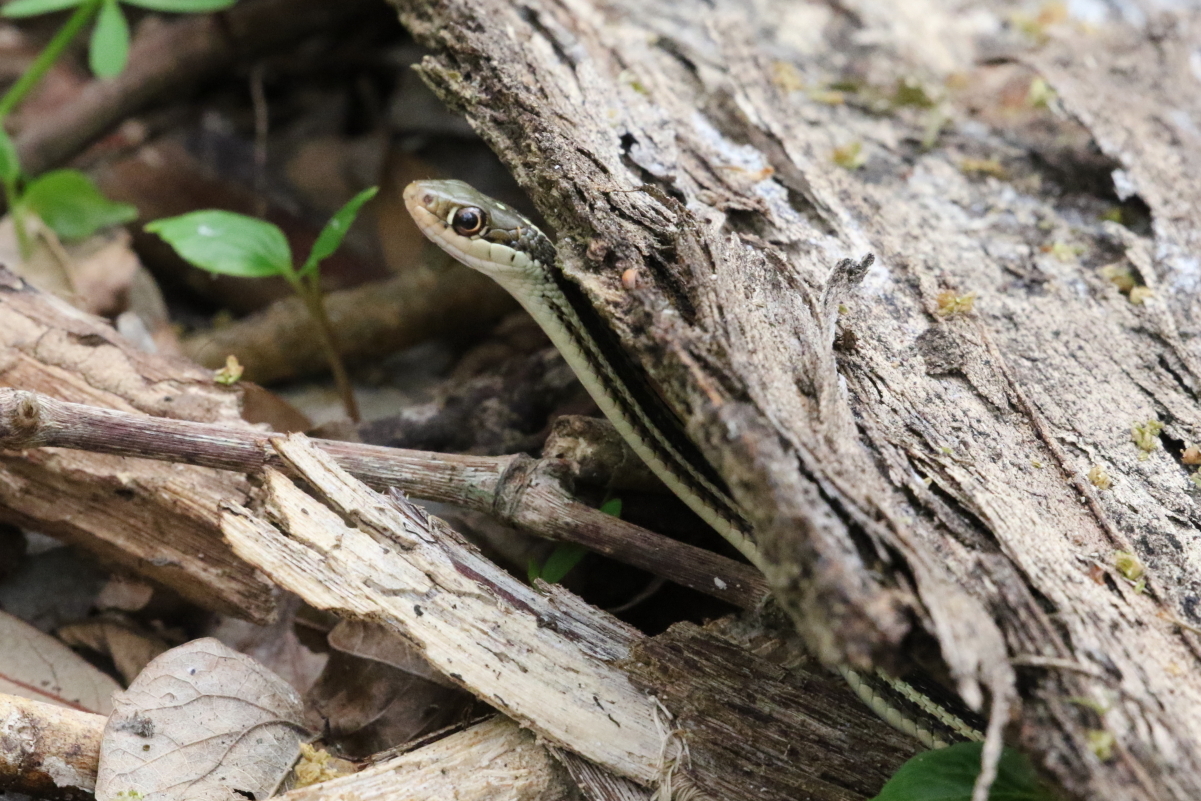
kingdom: Animalia
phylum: Chordata
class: Squamata
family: Colubridae
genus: Thamnophis
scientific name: Thamnophis proximus
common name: Western ribbon snake
